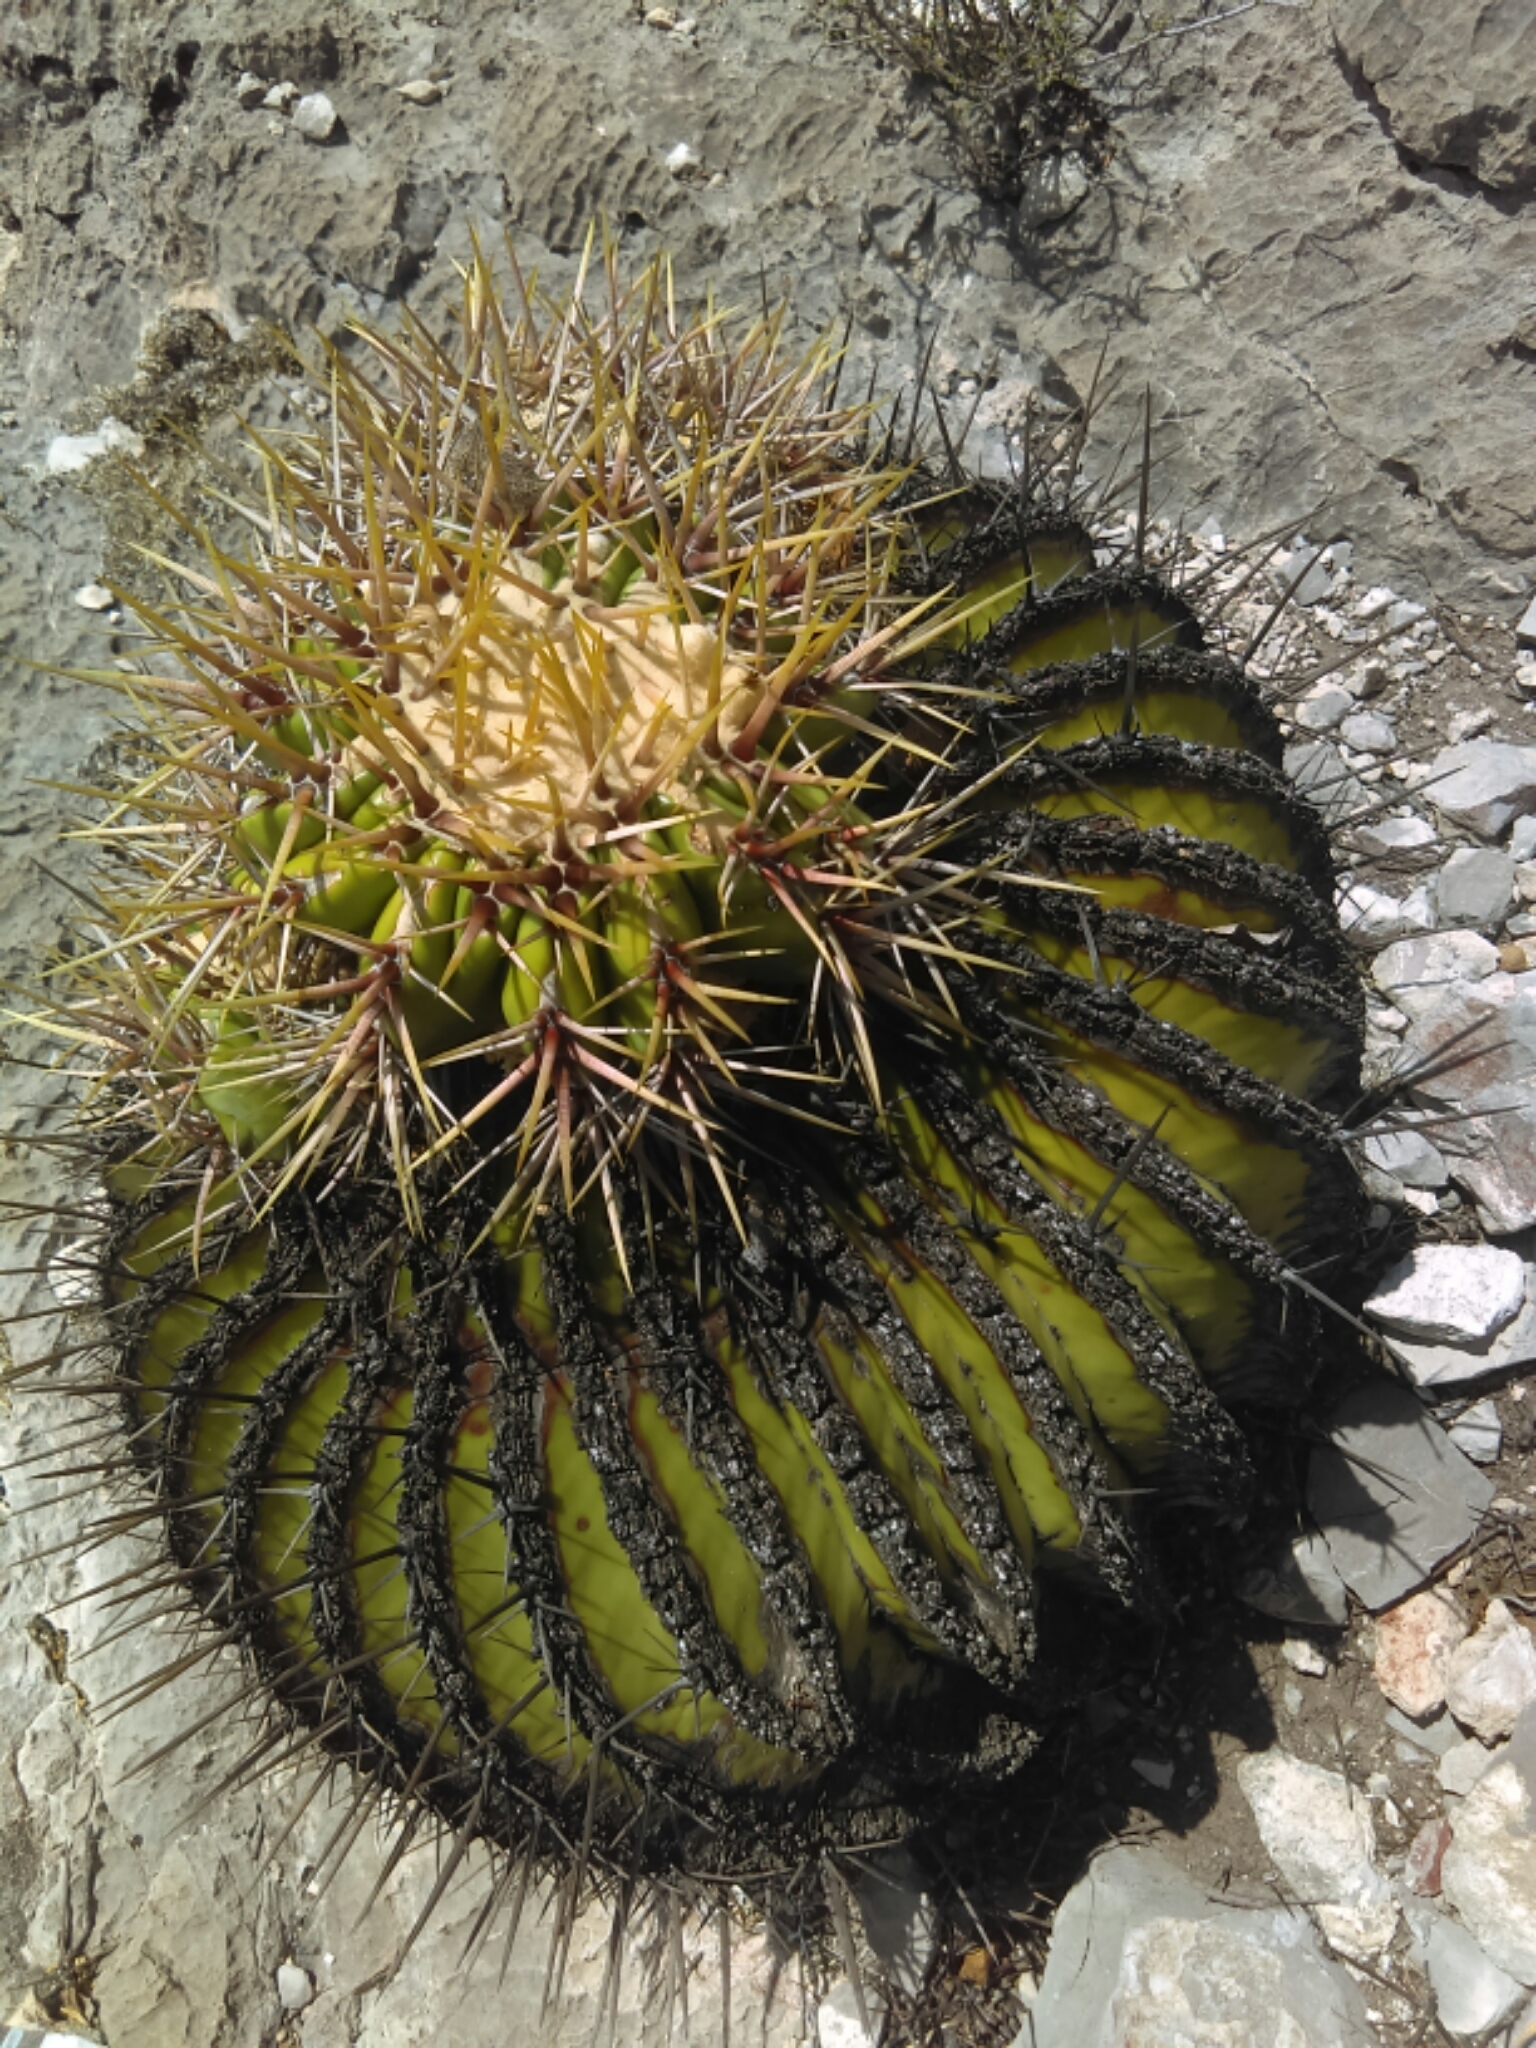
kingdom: Plantae
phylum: Tracheophyta
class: Magnoliopsida
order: Caryophyllales
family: Cactaceae
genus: Echinocactus
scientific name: Echinocactus platyacanthus
